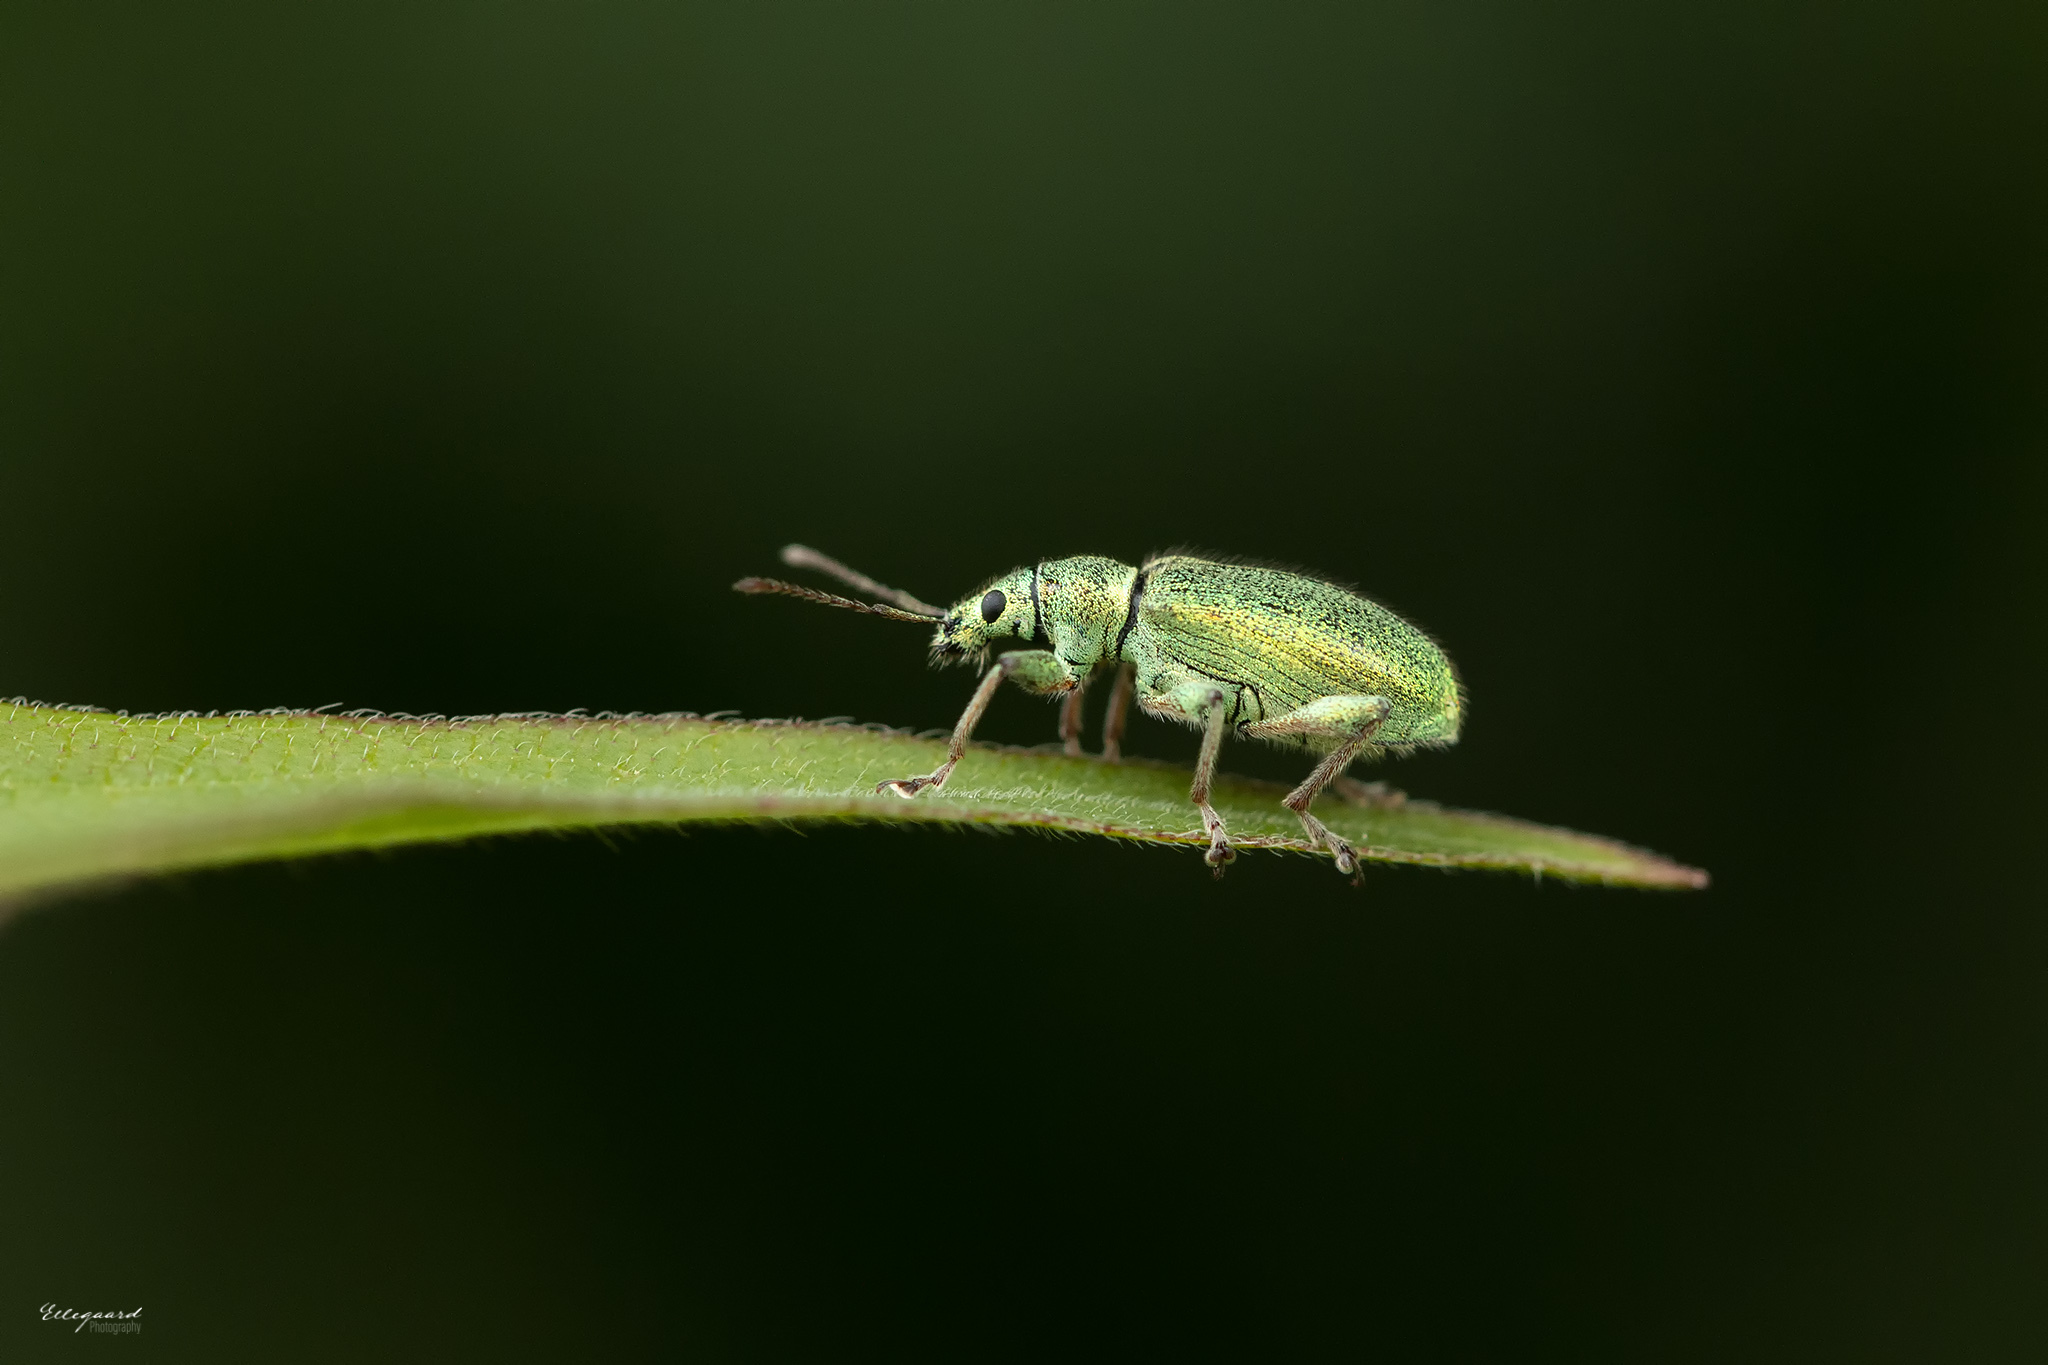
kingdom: Animalia
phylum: Arthropoda
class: Insecta
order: Coleoptera
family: Curculionidae
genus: Phyllobius
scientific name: Phyllobius arborator
